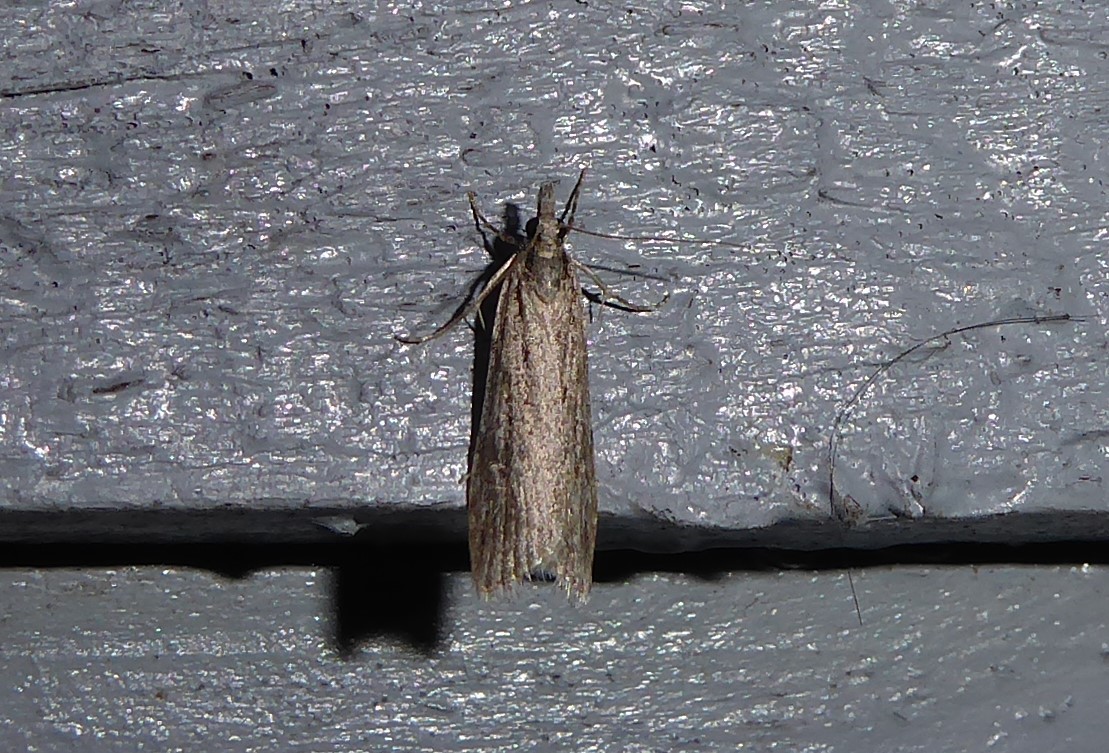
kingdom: Animalia
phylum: Arthropoda
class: Insecta
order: Lepidoptera
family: Crambidae
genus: Scoparia
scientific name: Scoparia chalicodes
